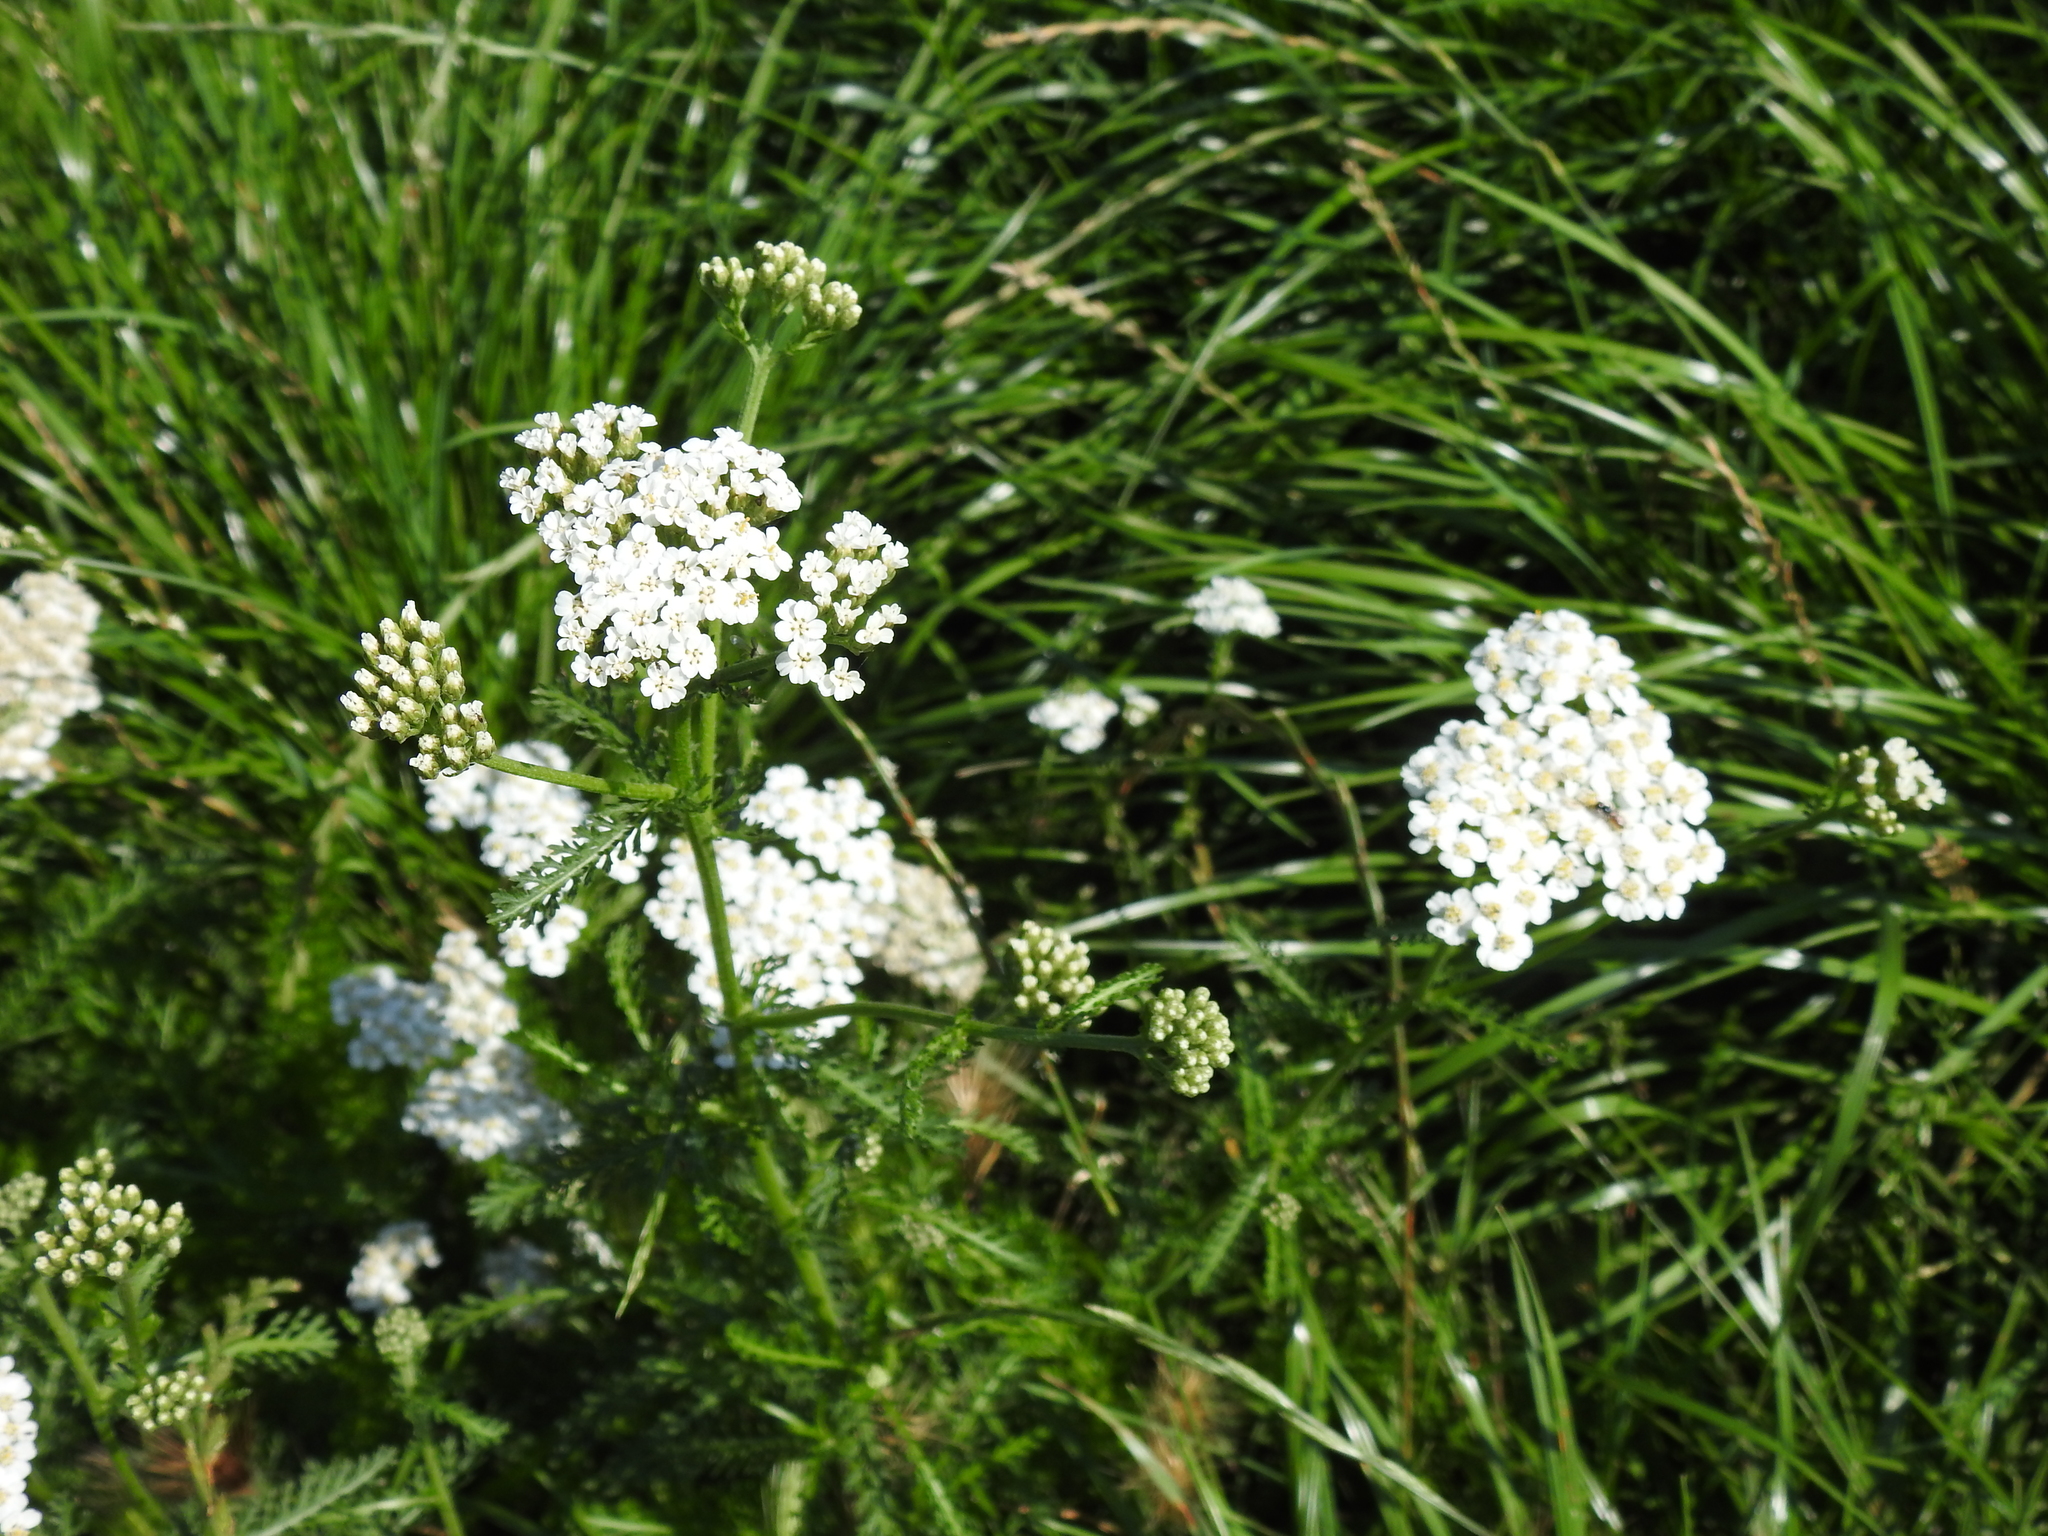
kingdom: Plantae
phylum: Tracheophyta
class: Magnoliopsida
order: Asterales
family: Asteraceae
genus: Achillea
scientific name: Achillea millefolium
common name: Yarrow
